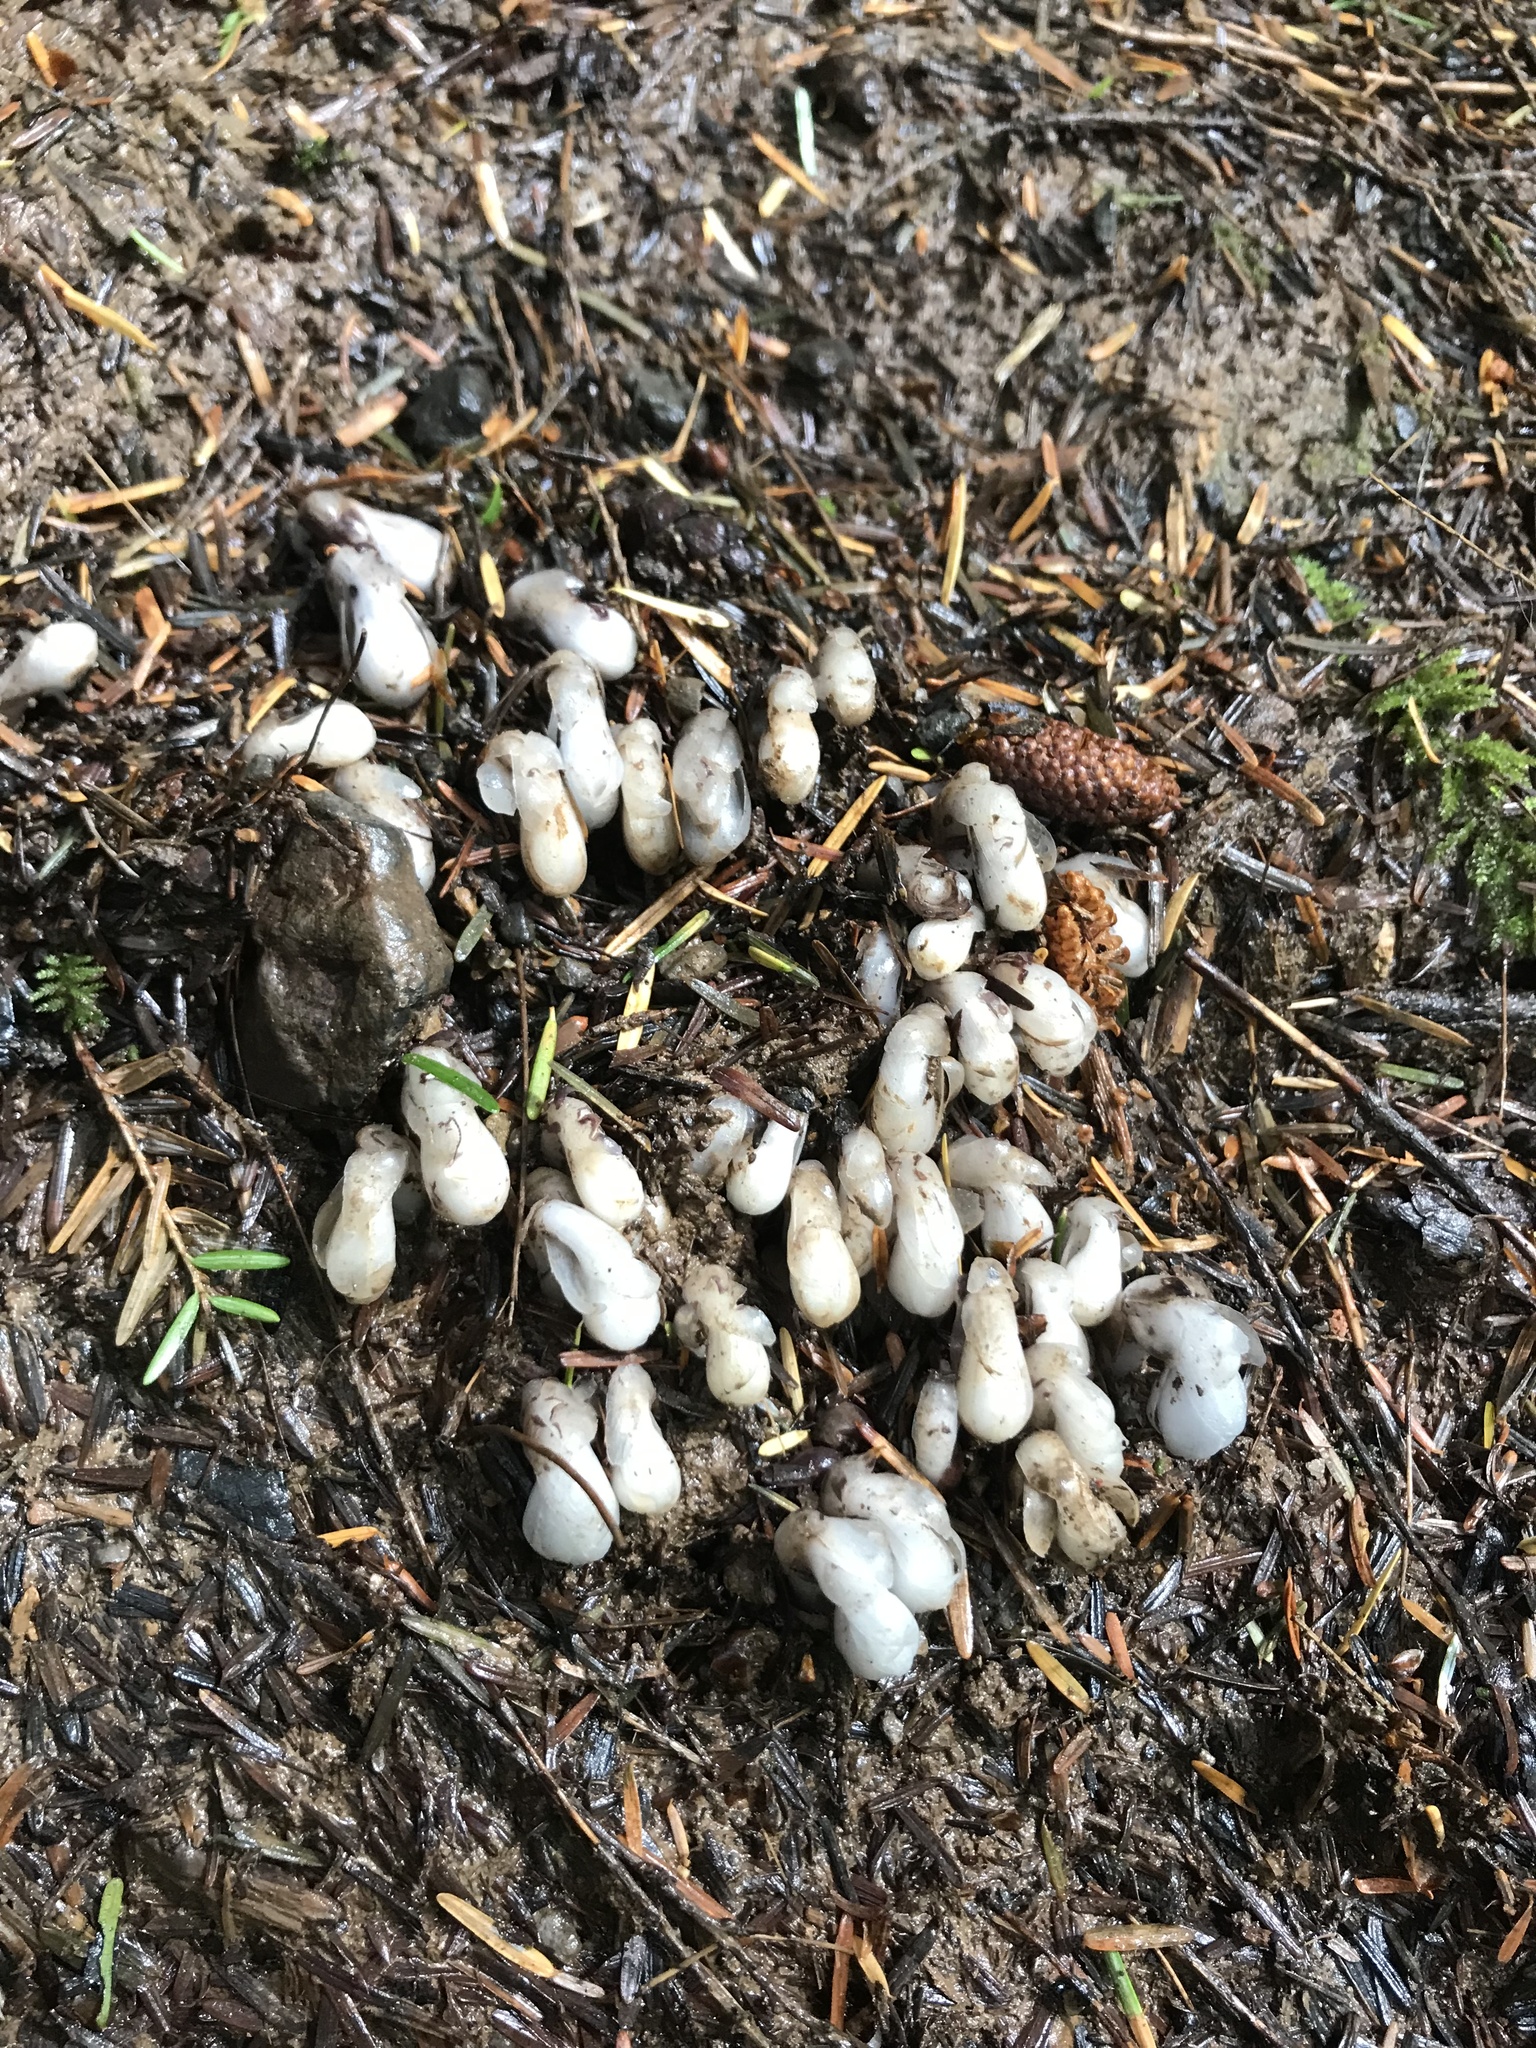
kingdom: Plantae
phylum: Tracheophyta
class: Magnoliopsida
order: Ericales
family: Ericaceae
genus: Monotropa
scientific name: Monotropa uniflora
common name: Convulsion root
